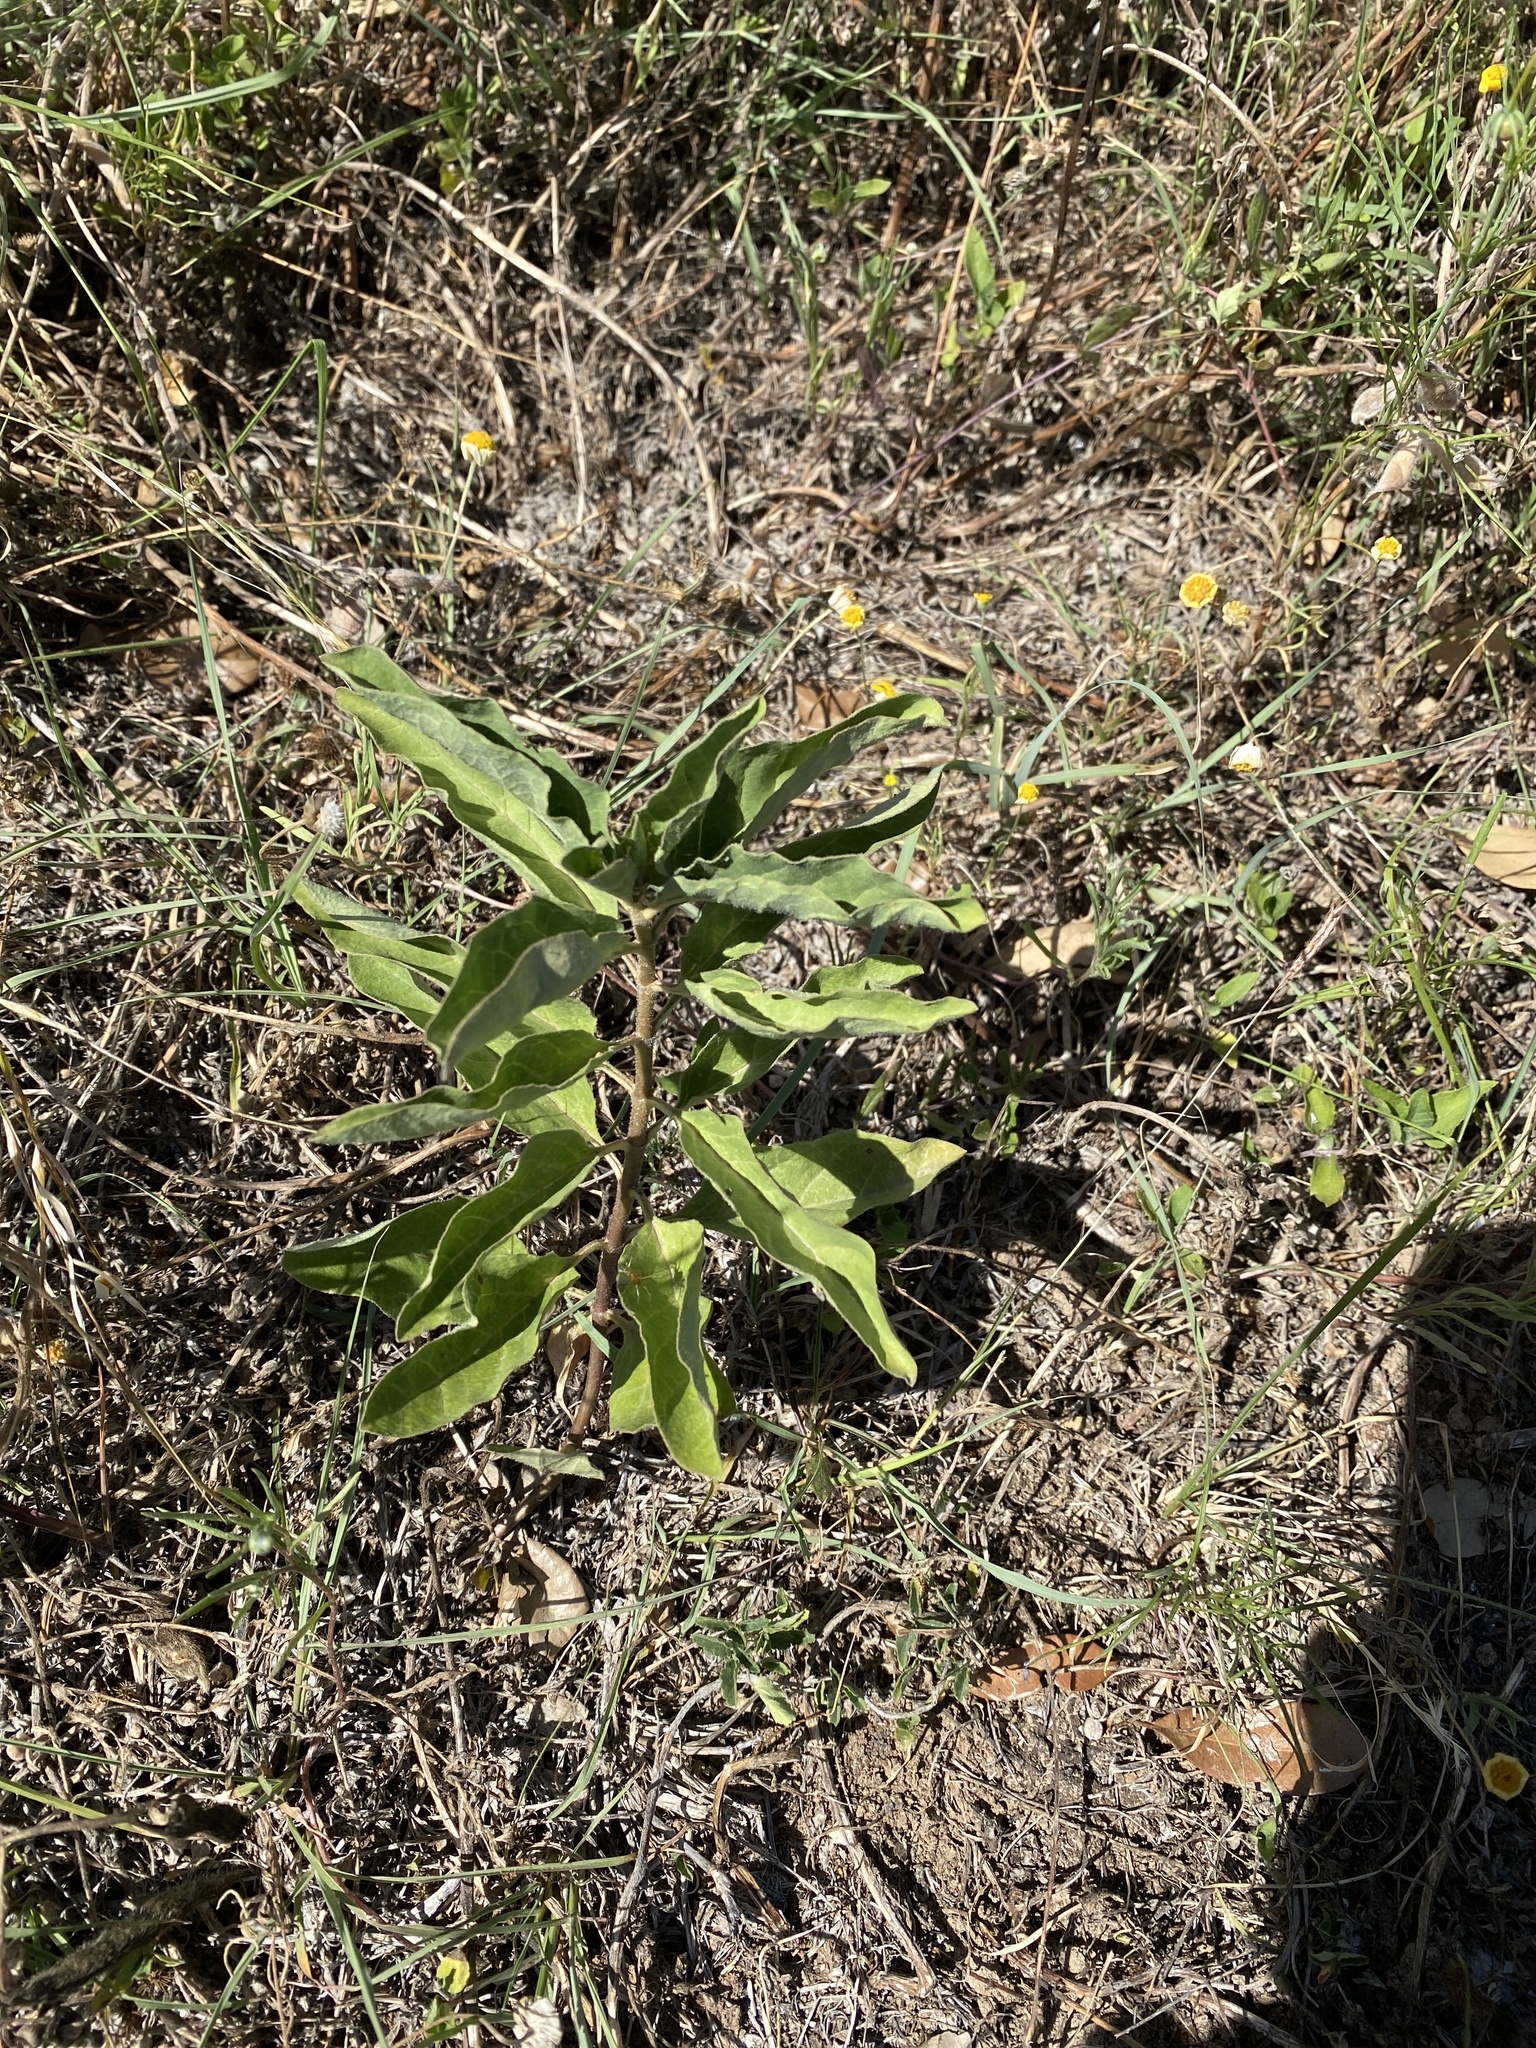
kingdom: Plantae
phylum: Tracheophyta
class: Magnoliopsida
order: Gentianales
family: Apocynaceae
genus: Asclepias
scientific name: Asclepias oenotheroides
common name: Zizotes milkweed
